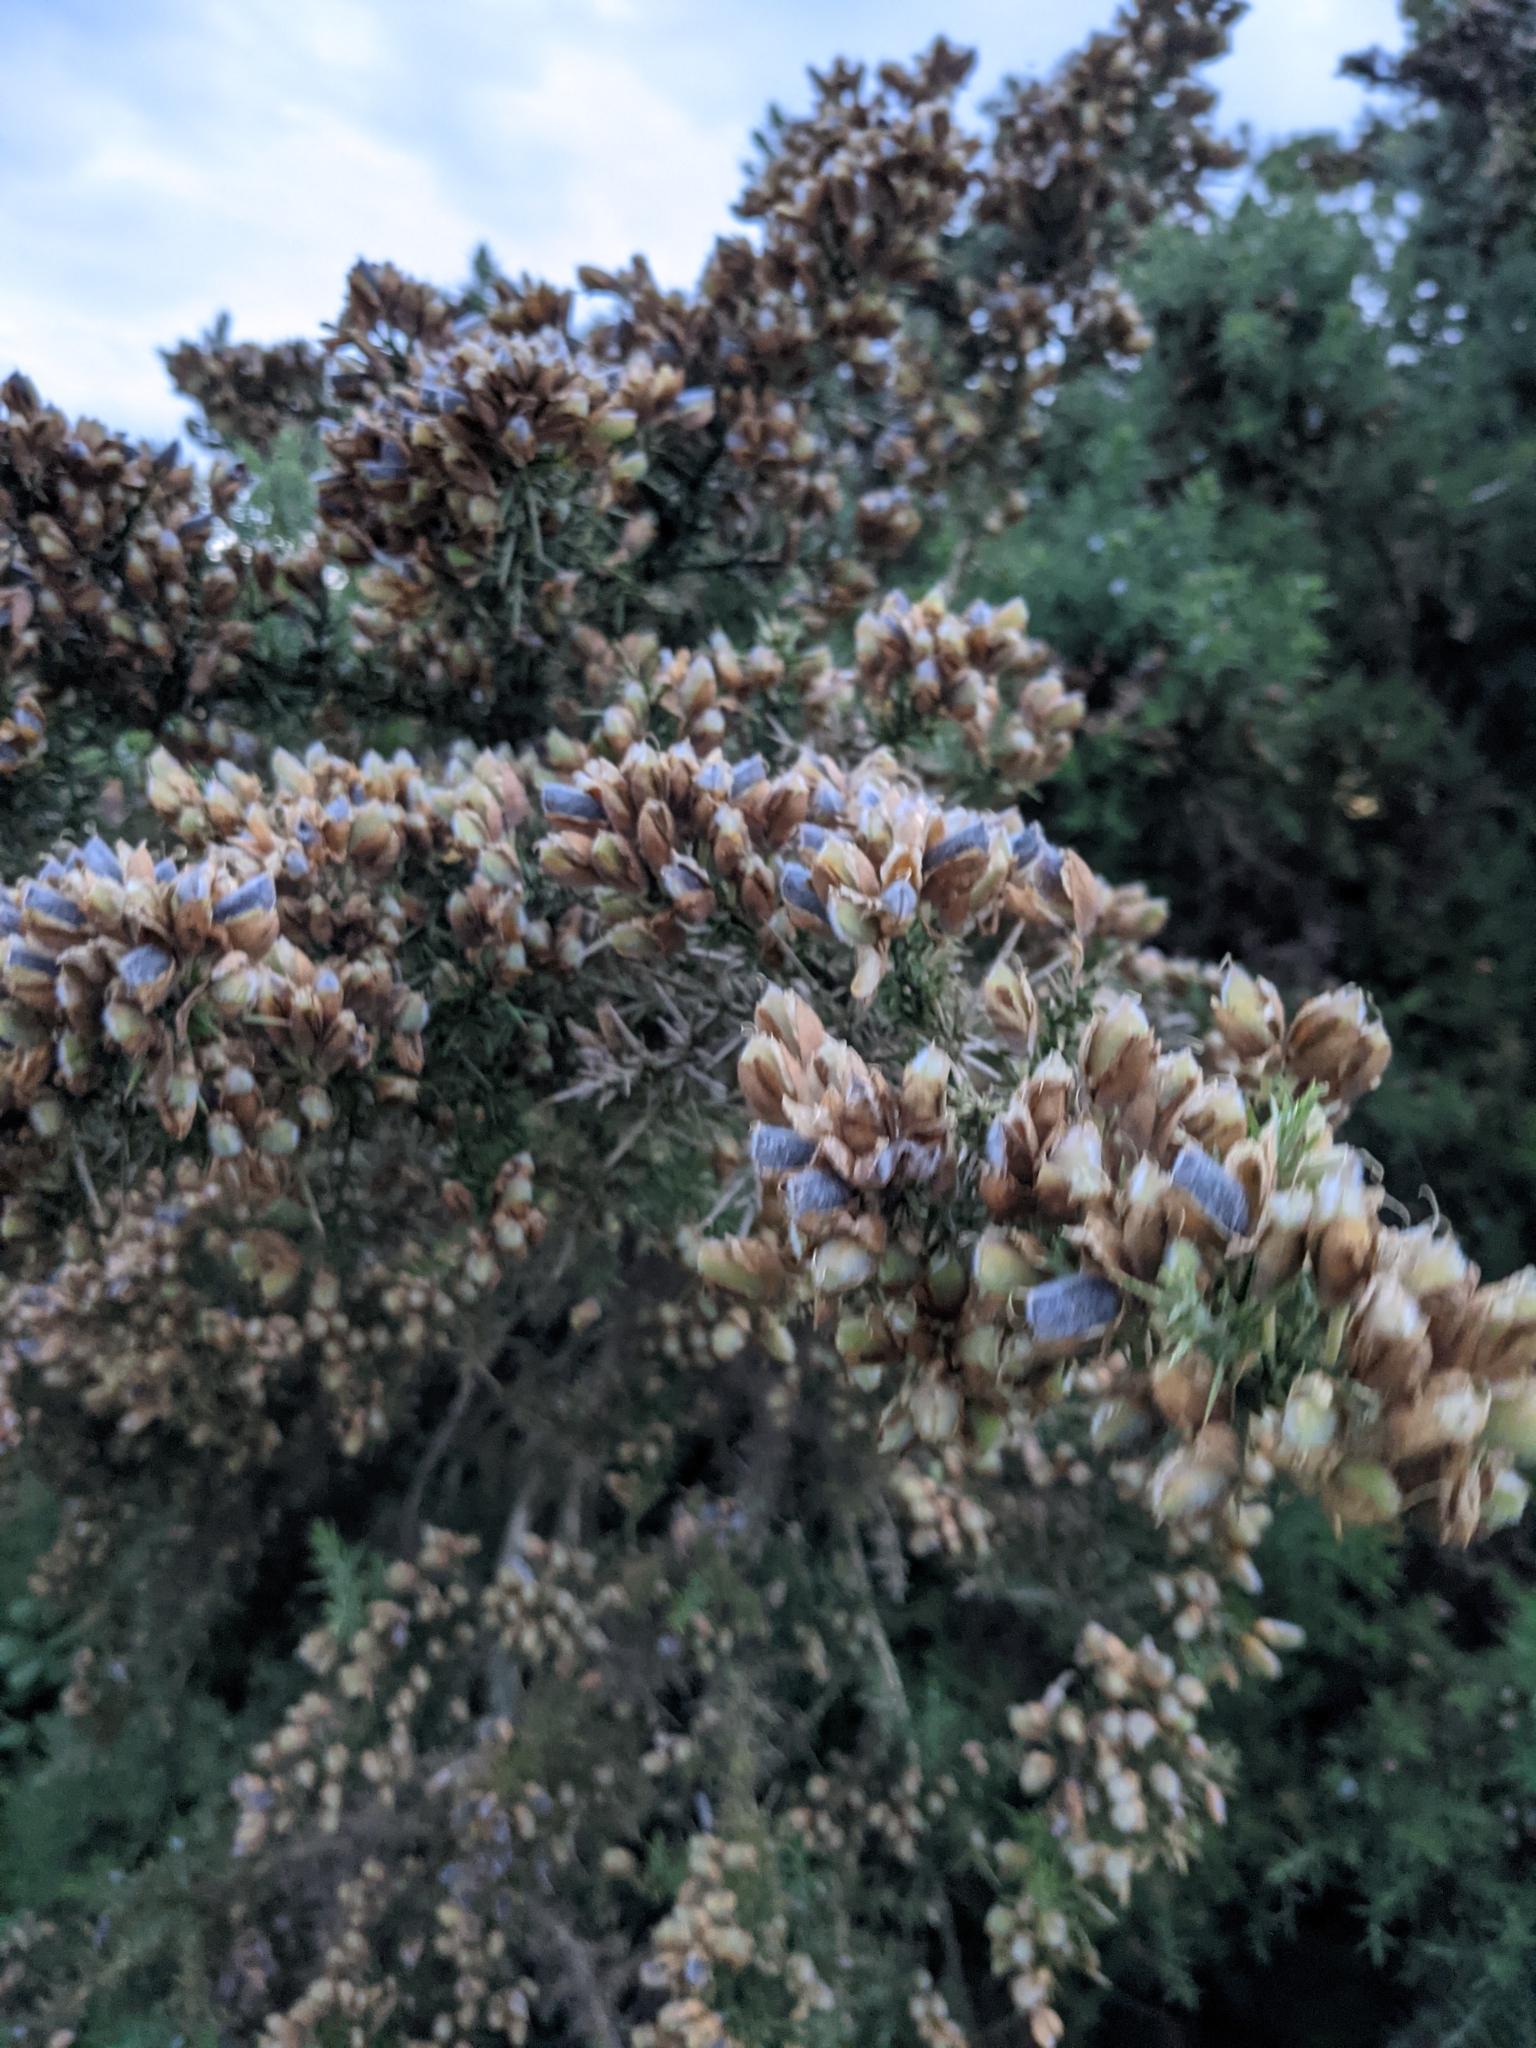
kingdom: Plantae
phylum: Tracheophyta
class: Magnoliopsida
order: Fabales
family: Fabaceae
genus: Ulex
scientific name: Ulex europaeus
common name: Common gorse
